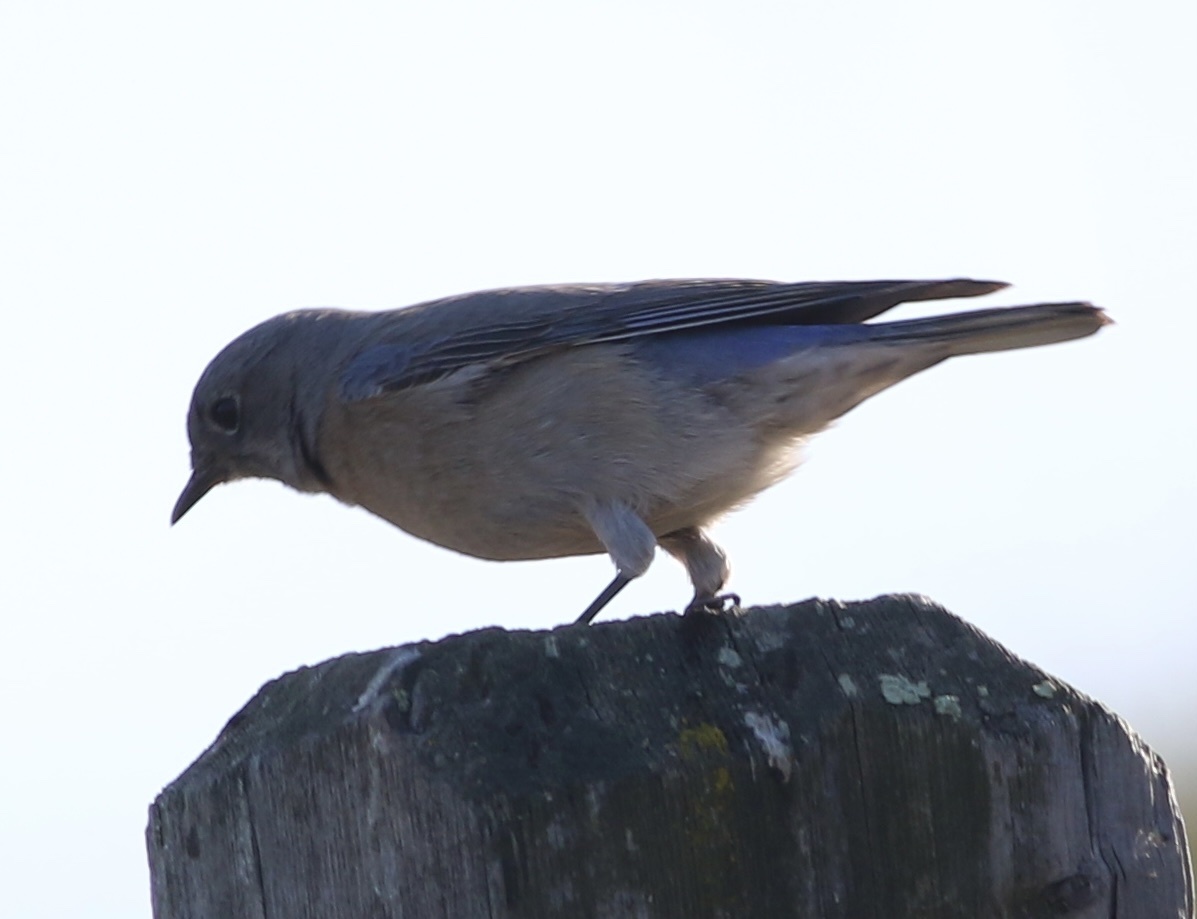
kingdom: Animalia
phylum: Chordata
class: Aves
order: Passeriformes
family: Turdidae
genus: Sialia
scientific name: Sialia mexicana
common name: Western bluebird
